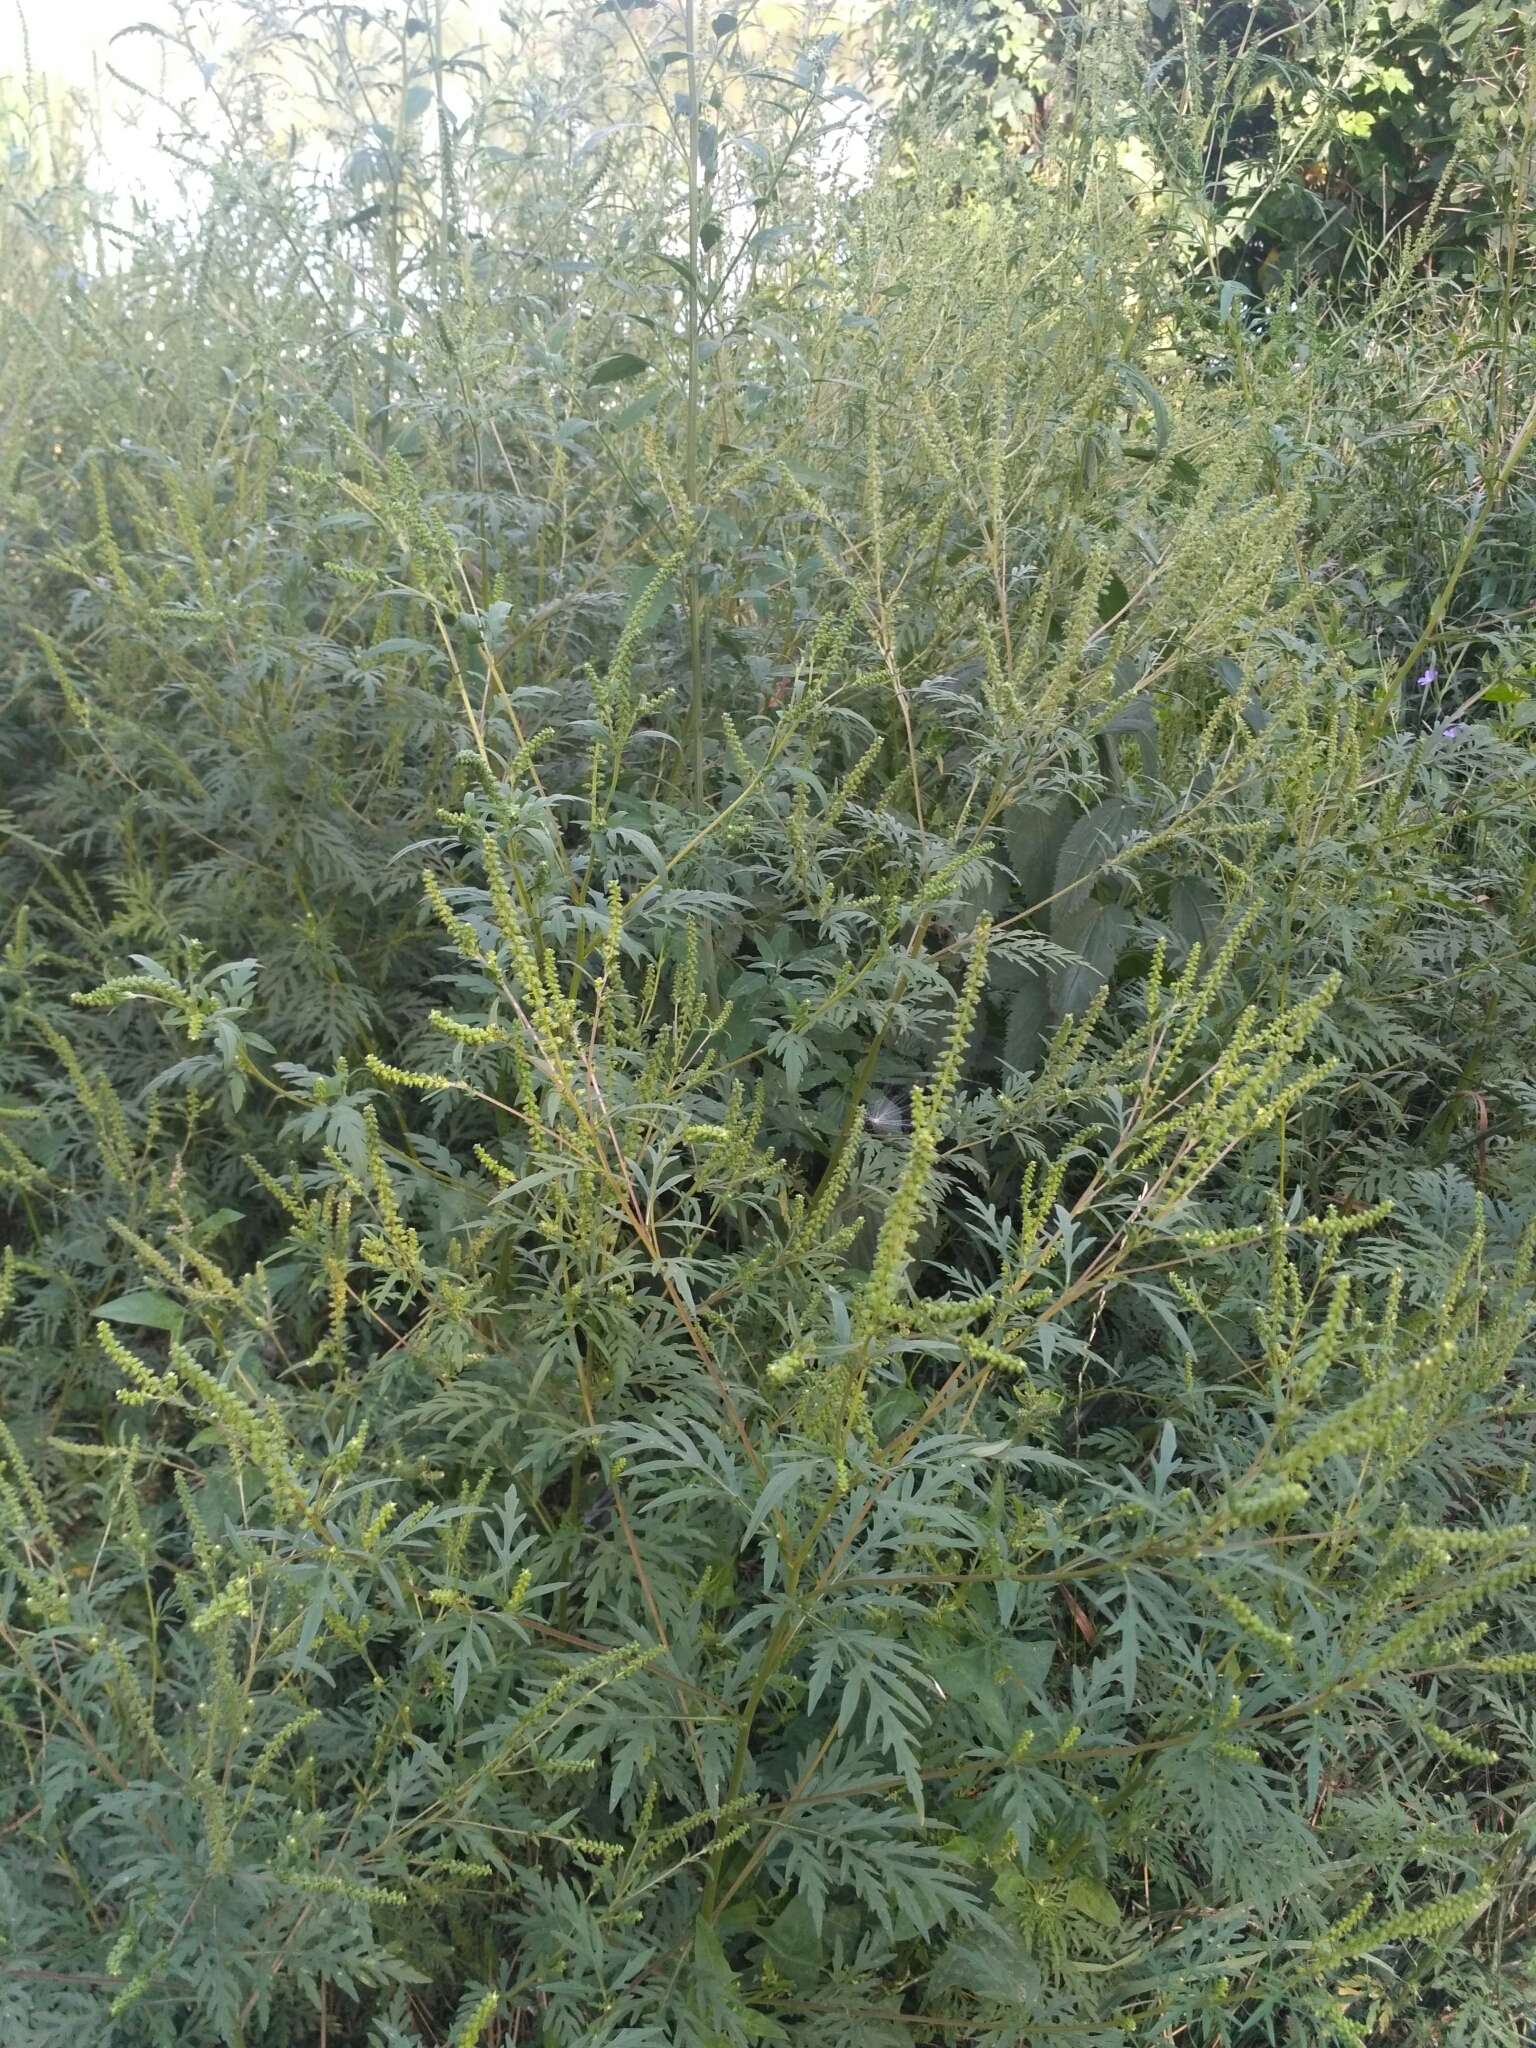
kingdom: Plantae
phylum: Tracheophyta
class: Magnoliopsida
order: Asterales
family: Asteraceae
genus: Ambrosia
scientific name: Ambrosia artemisiifolia
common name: Annual ragweed
